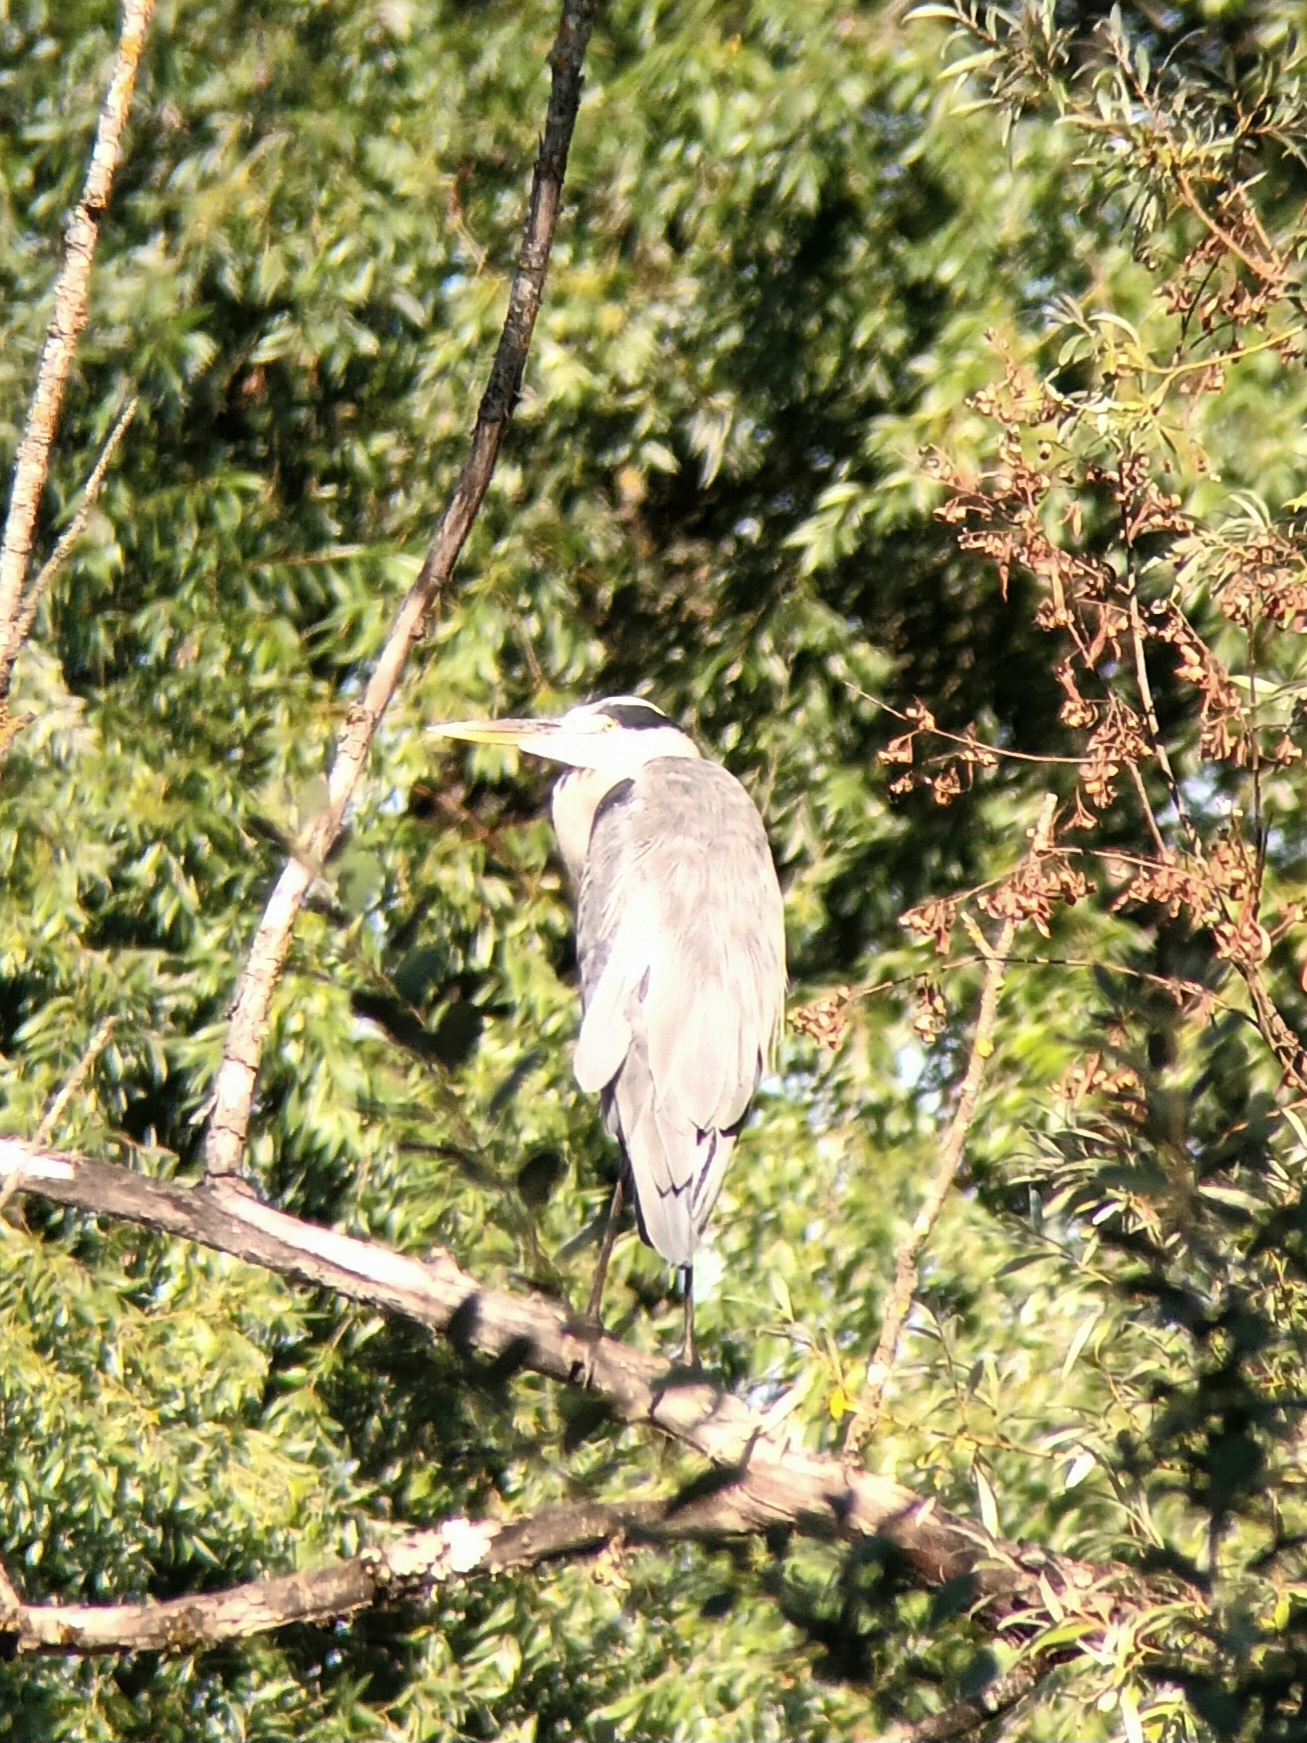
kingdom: Animalia
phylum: Chordata
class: Aves
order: Pelecaniformes
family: Ardeidae
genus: Ardea
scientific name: Ardea cinerea
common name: Grey heron
